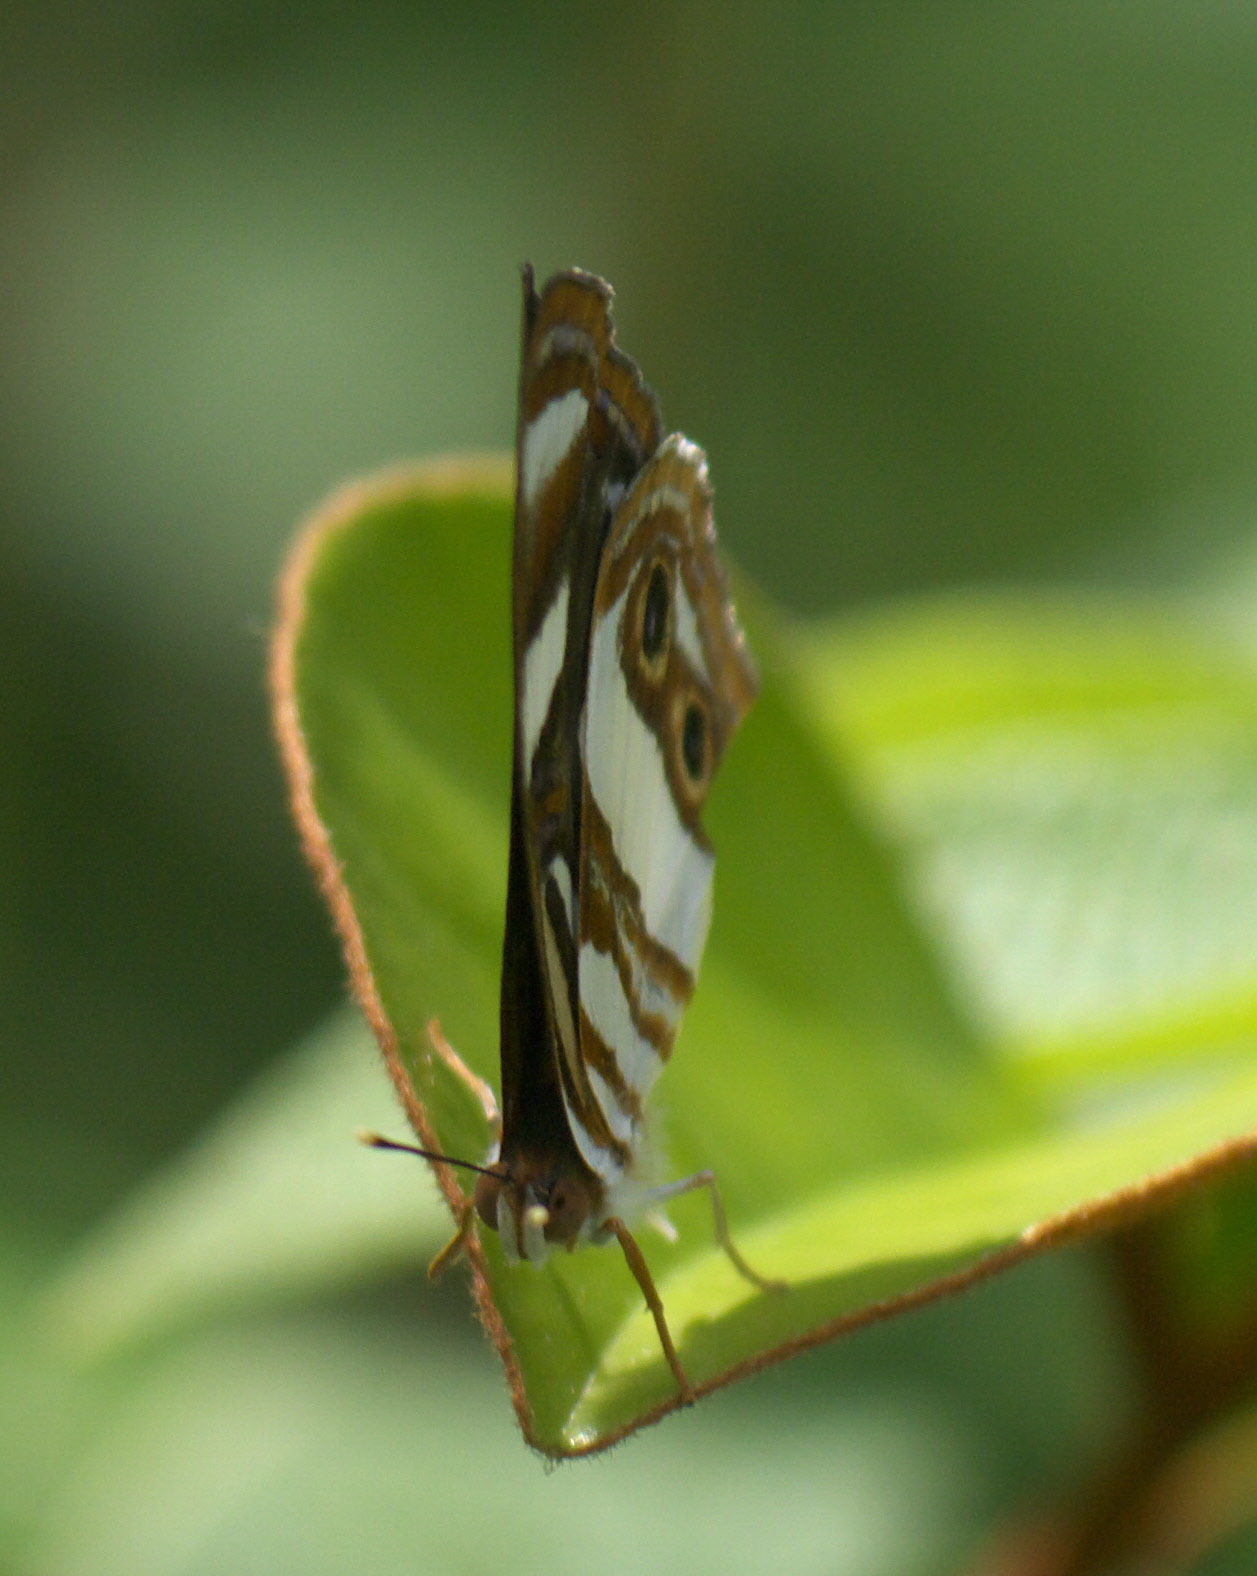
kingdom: Animalia
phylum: Arthropoda
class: Insecta
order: Lepidoptera
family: Nymphalidae
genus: Dynamine
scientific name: Dynamine mylitta
